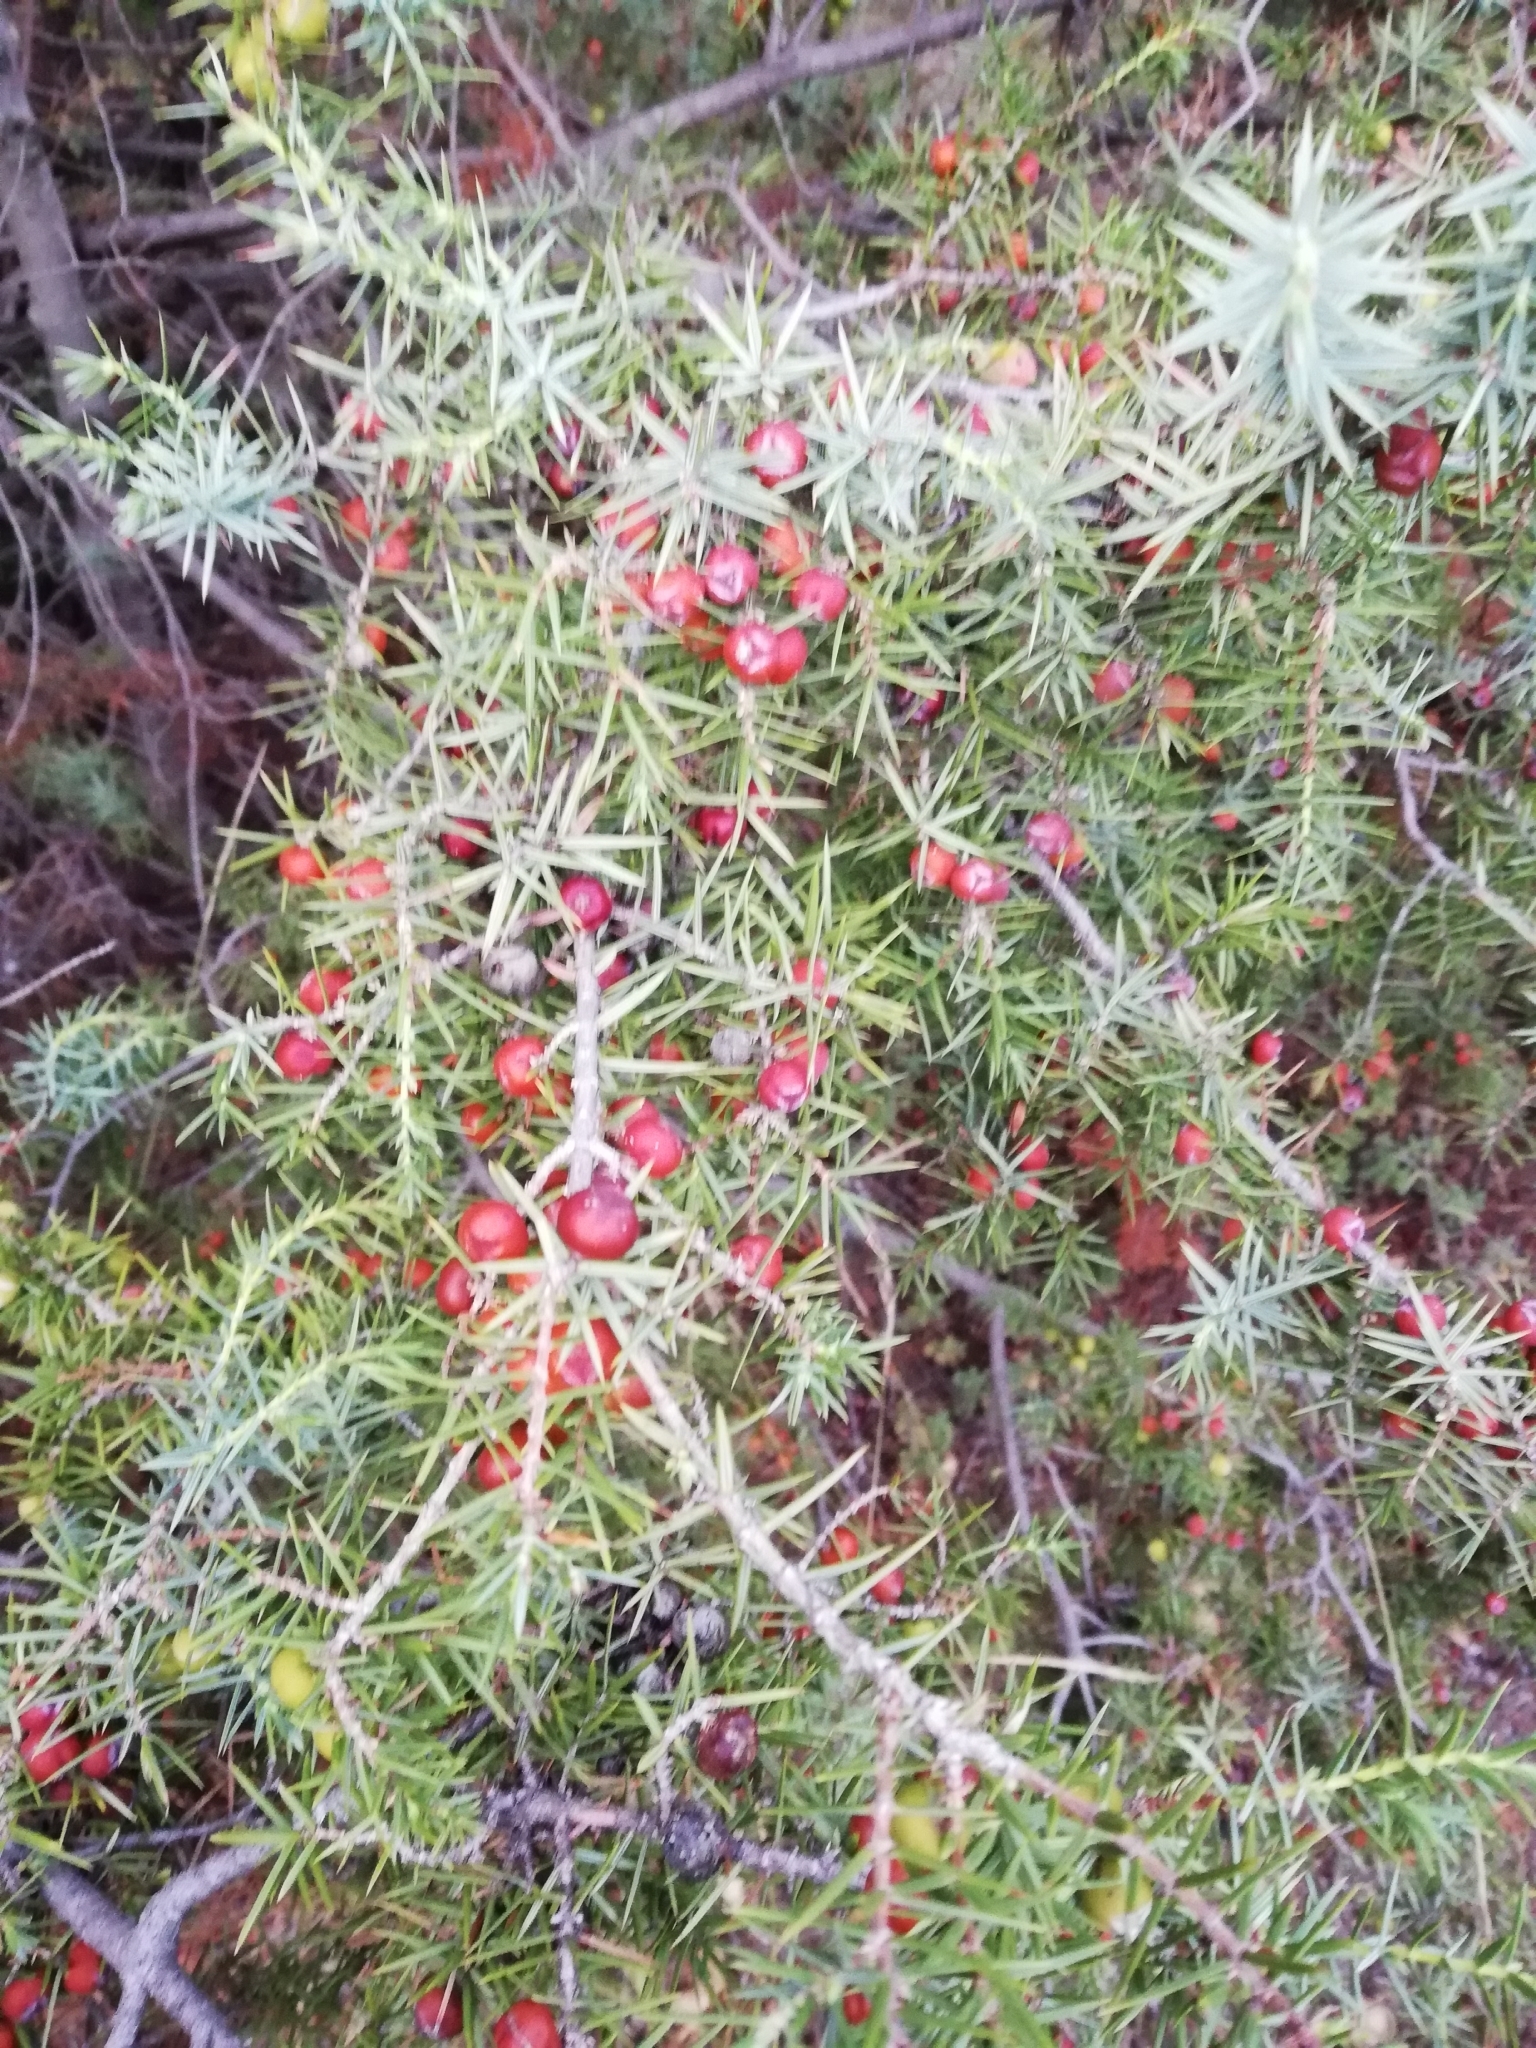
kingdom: Plantae
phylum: Tracheophyta
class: Pinopsida
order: Pinales
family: Cupressaceae
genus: Juniperus
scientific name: Juniperus oxycedrus
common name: Prickly juniper
